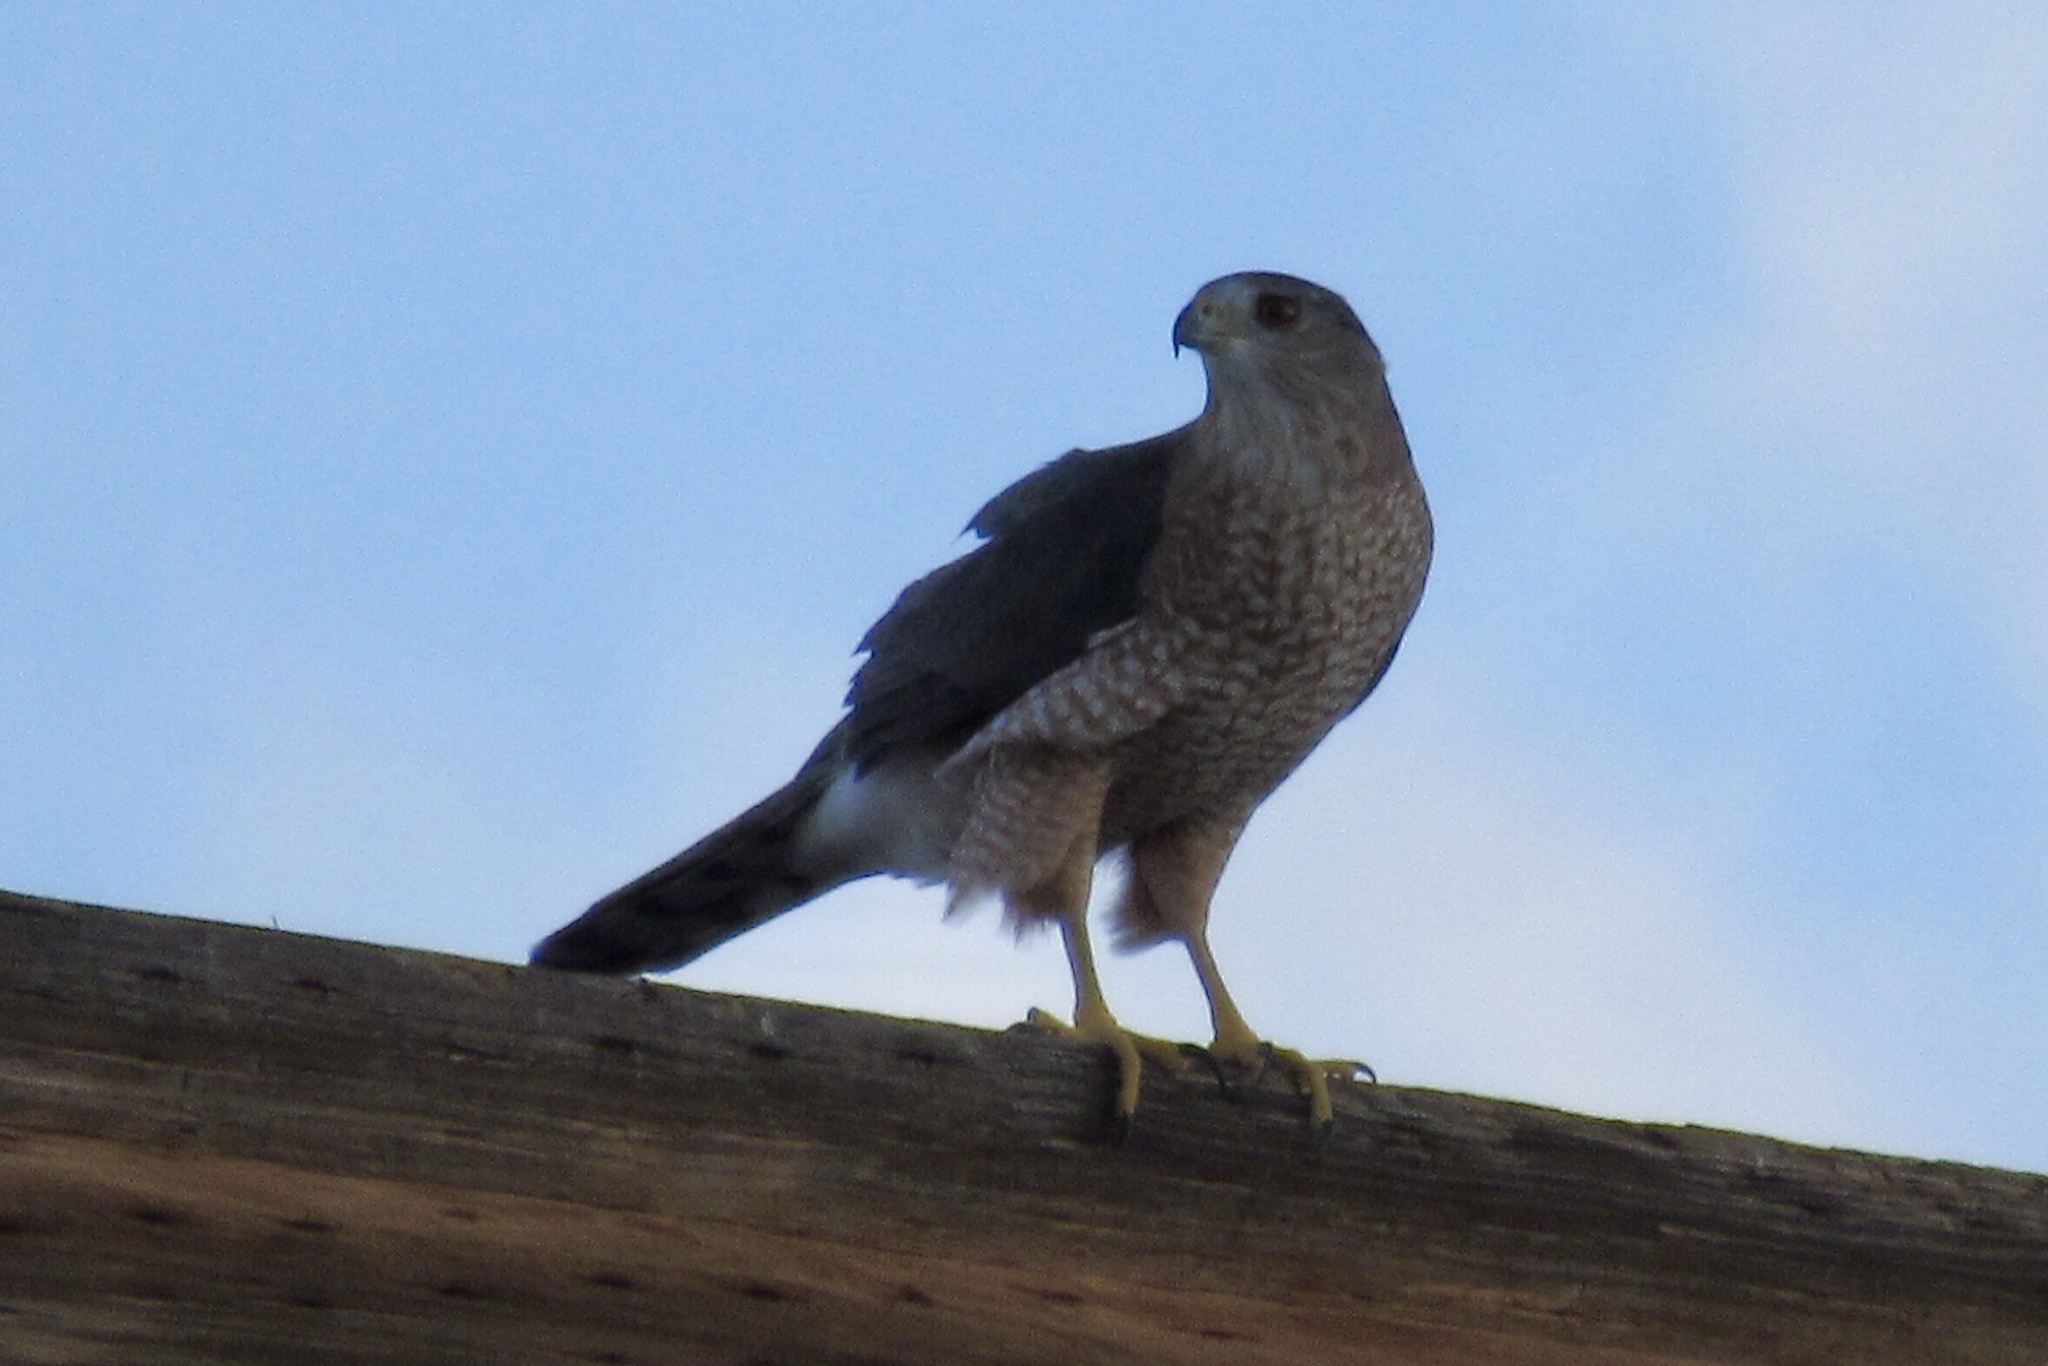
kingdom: Animalia
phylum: Chordata
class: Aves
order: Accipitriformes
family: Accipitridae
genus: Accipiter
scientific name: Accipiter cooperii
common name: Cooper's hawk
